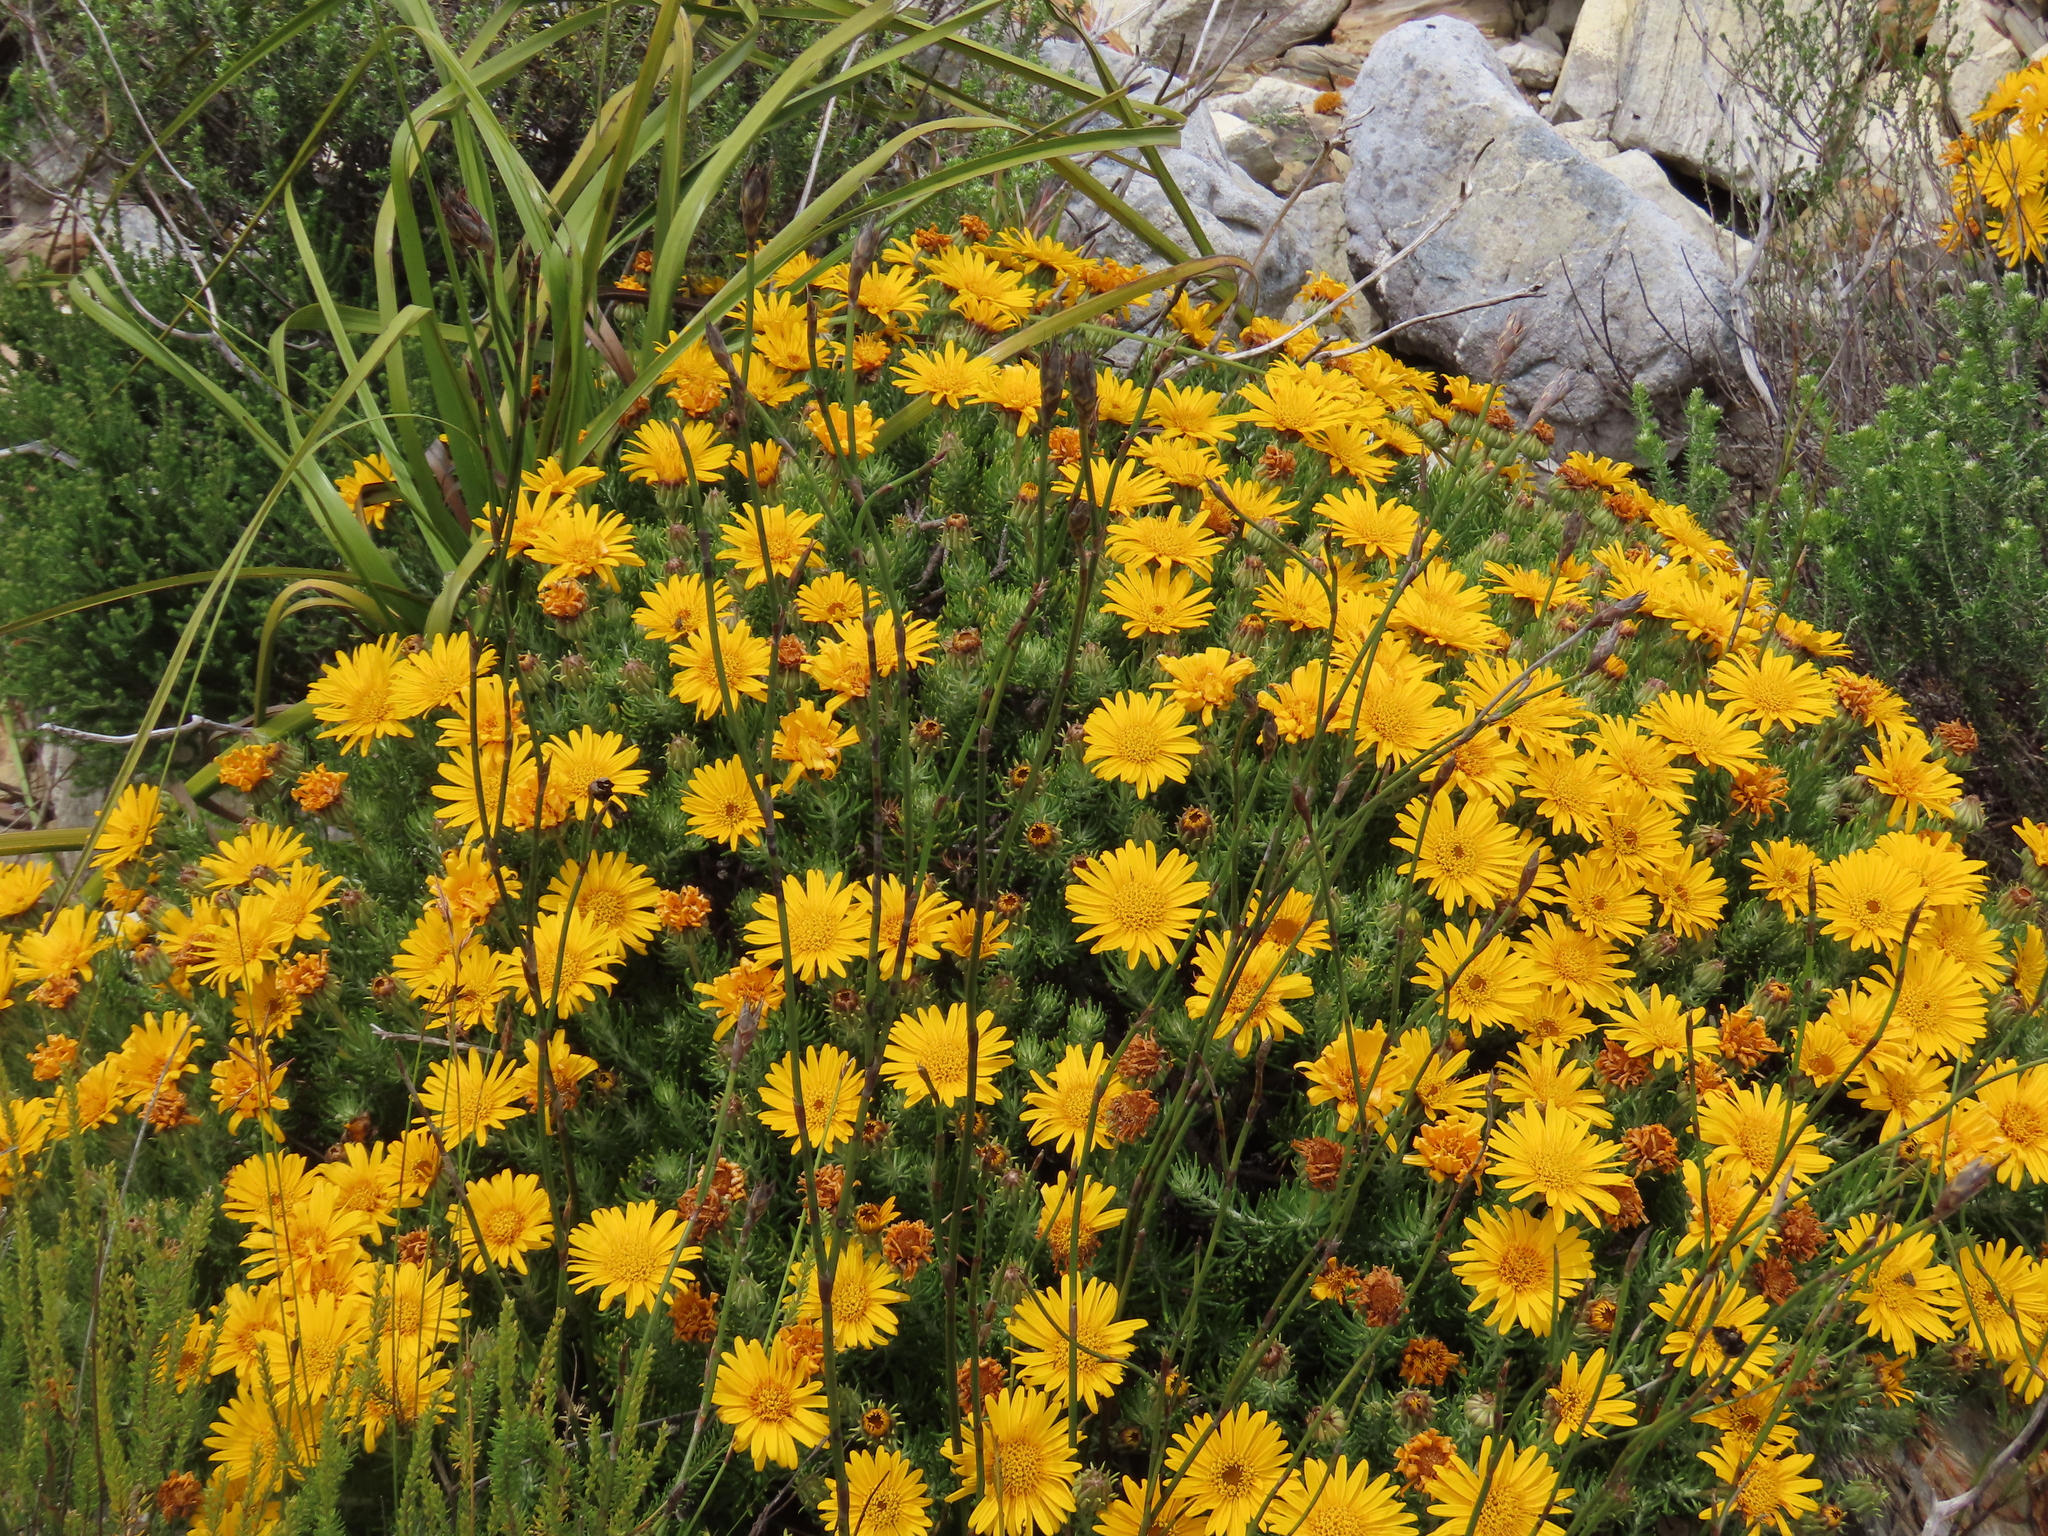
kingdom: Plantae
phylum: Tracheophyta
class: Magnoliopsida
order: Asterales
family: Asteraceae
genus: Heterolepis
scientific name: Heterolepis aliena
